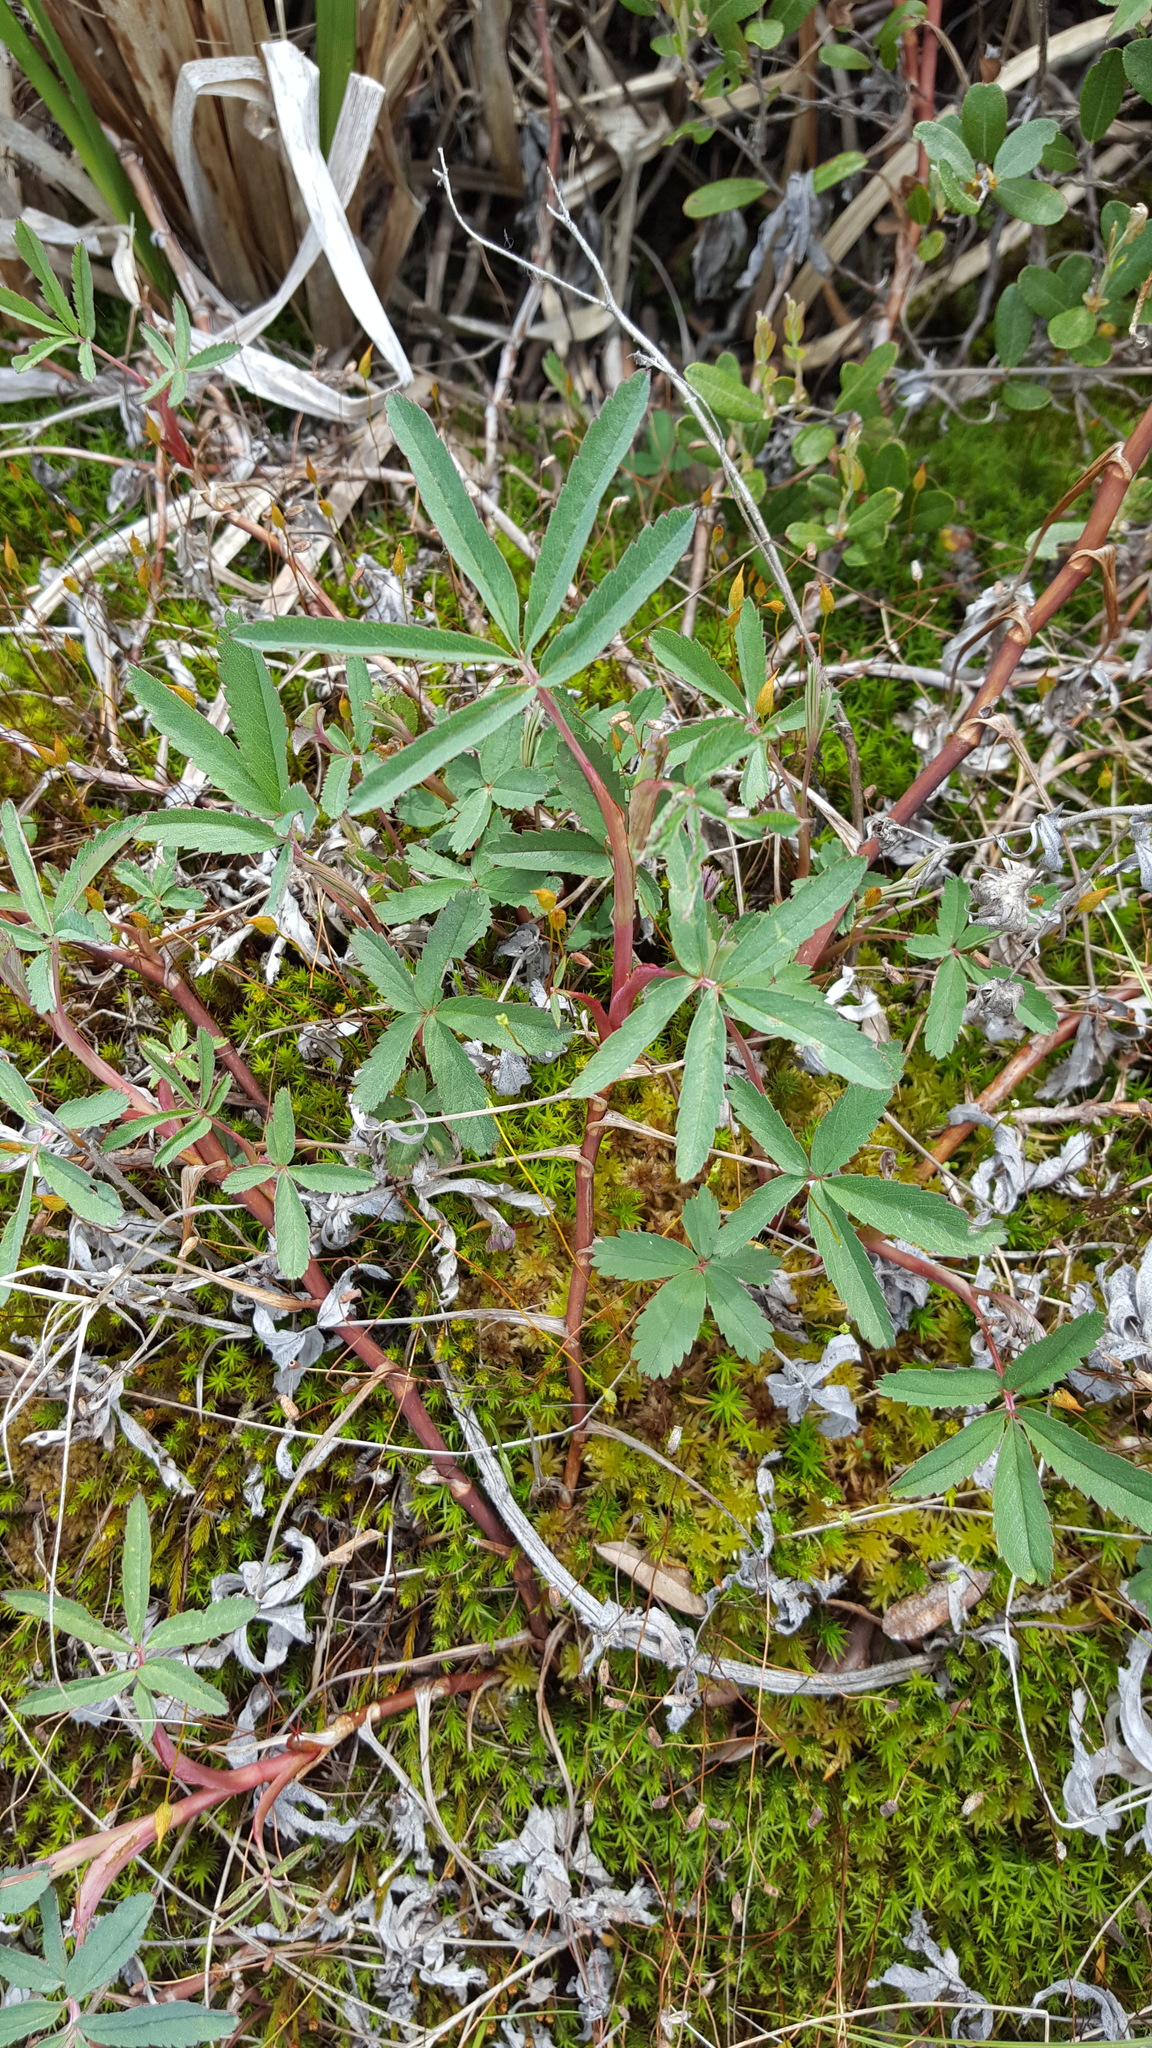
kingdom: Plantae
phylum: Tracheophyta
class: Magnoliopsida
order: Rosales
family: Rosaceae
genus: Comarum
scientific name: Comarum palustre
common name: Marsh cinquefoil
